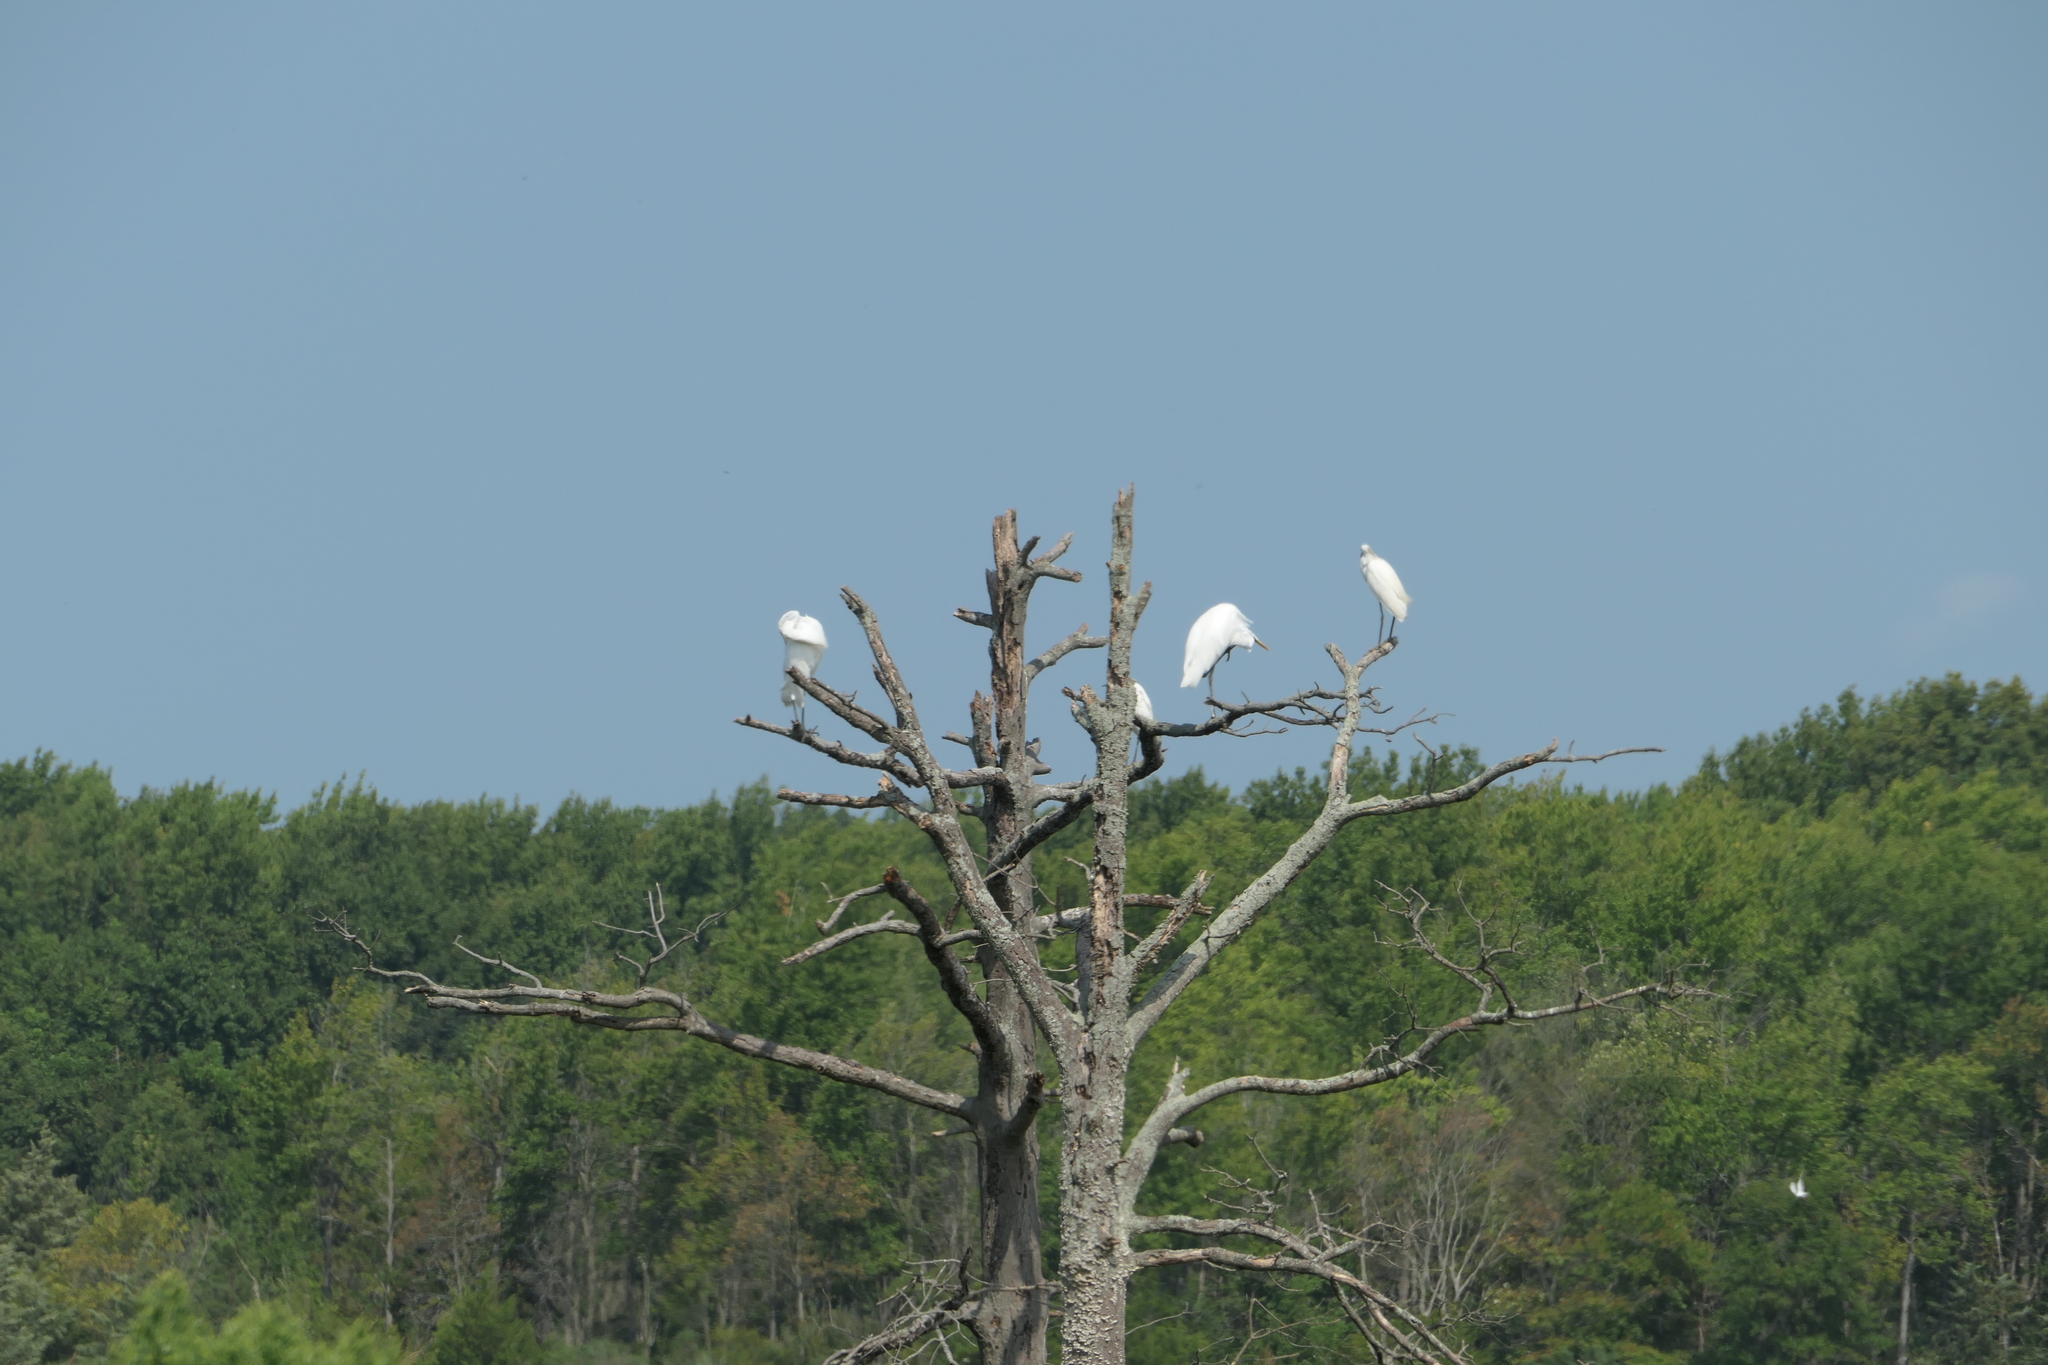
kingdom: Animalia
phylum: Chordata
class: Aves
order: Pelecaniformes
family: Ardeidae
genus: Ardea
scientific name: Ardea alba
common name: Great egret
